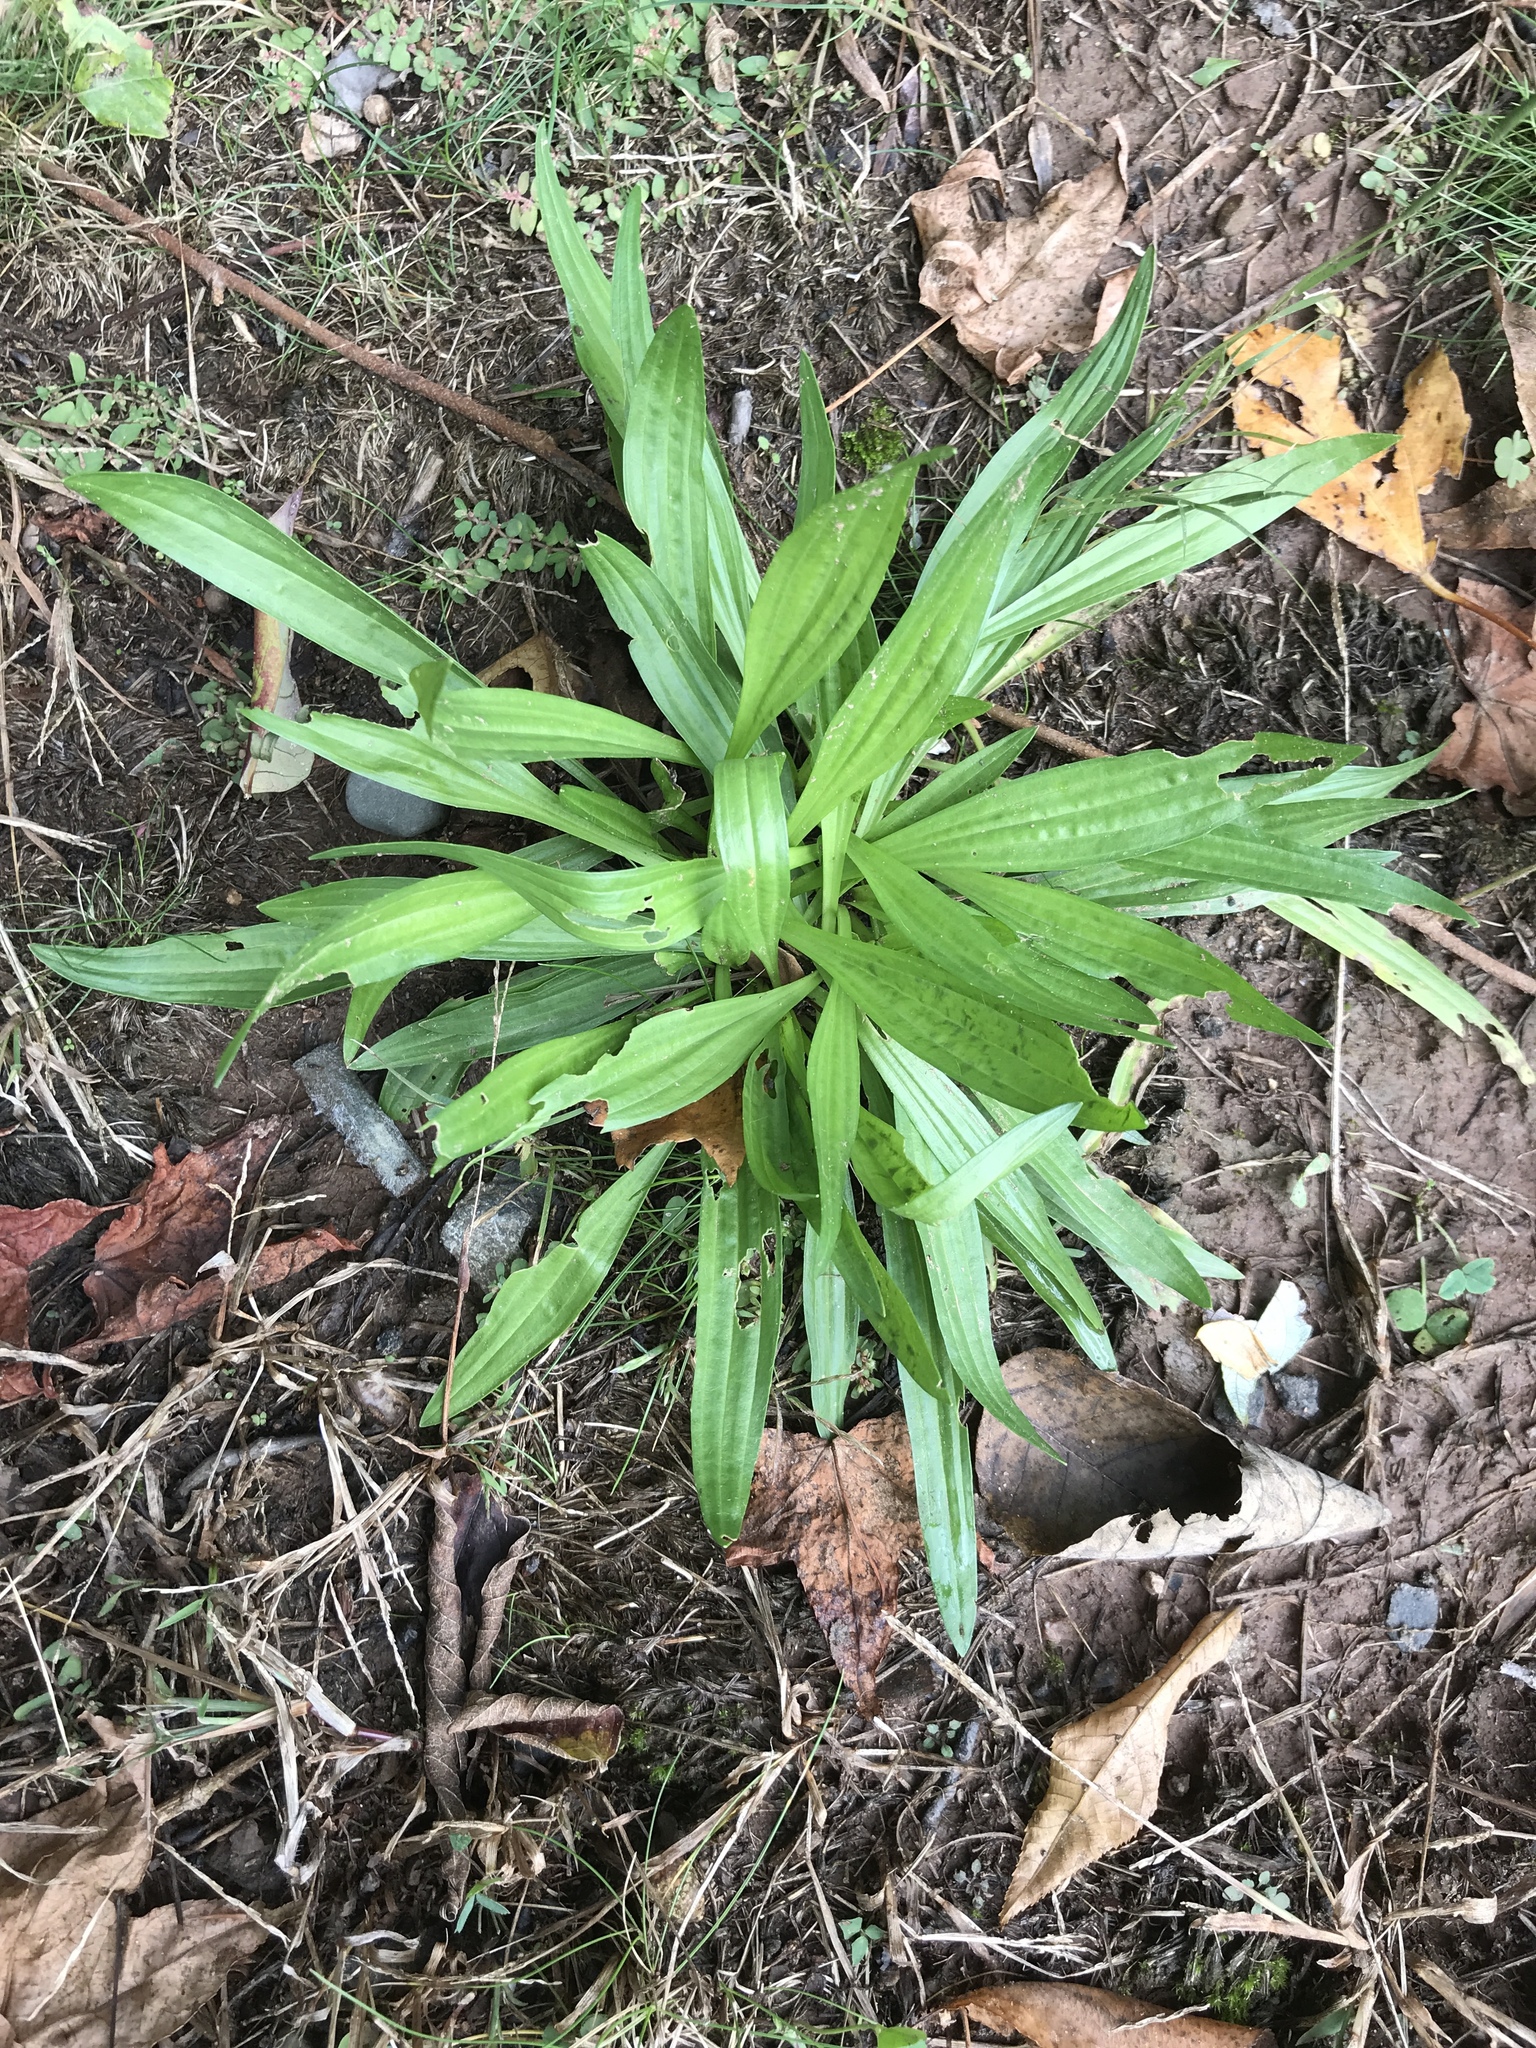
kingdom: Plantae
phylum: Tracheophyta
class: Magnoliopsida
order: Lamiales
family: Plantaginaceae
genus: Plantago
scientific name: Plantago lanceolata
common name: Ribwort plantain
